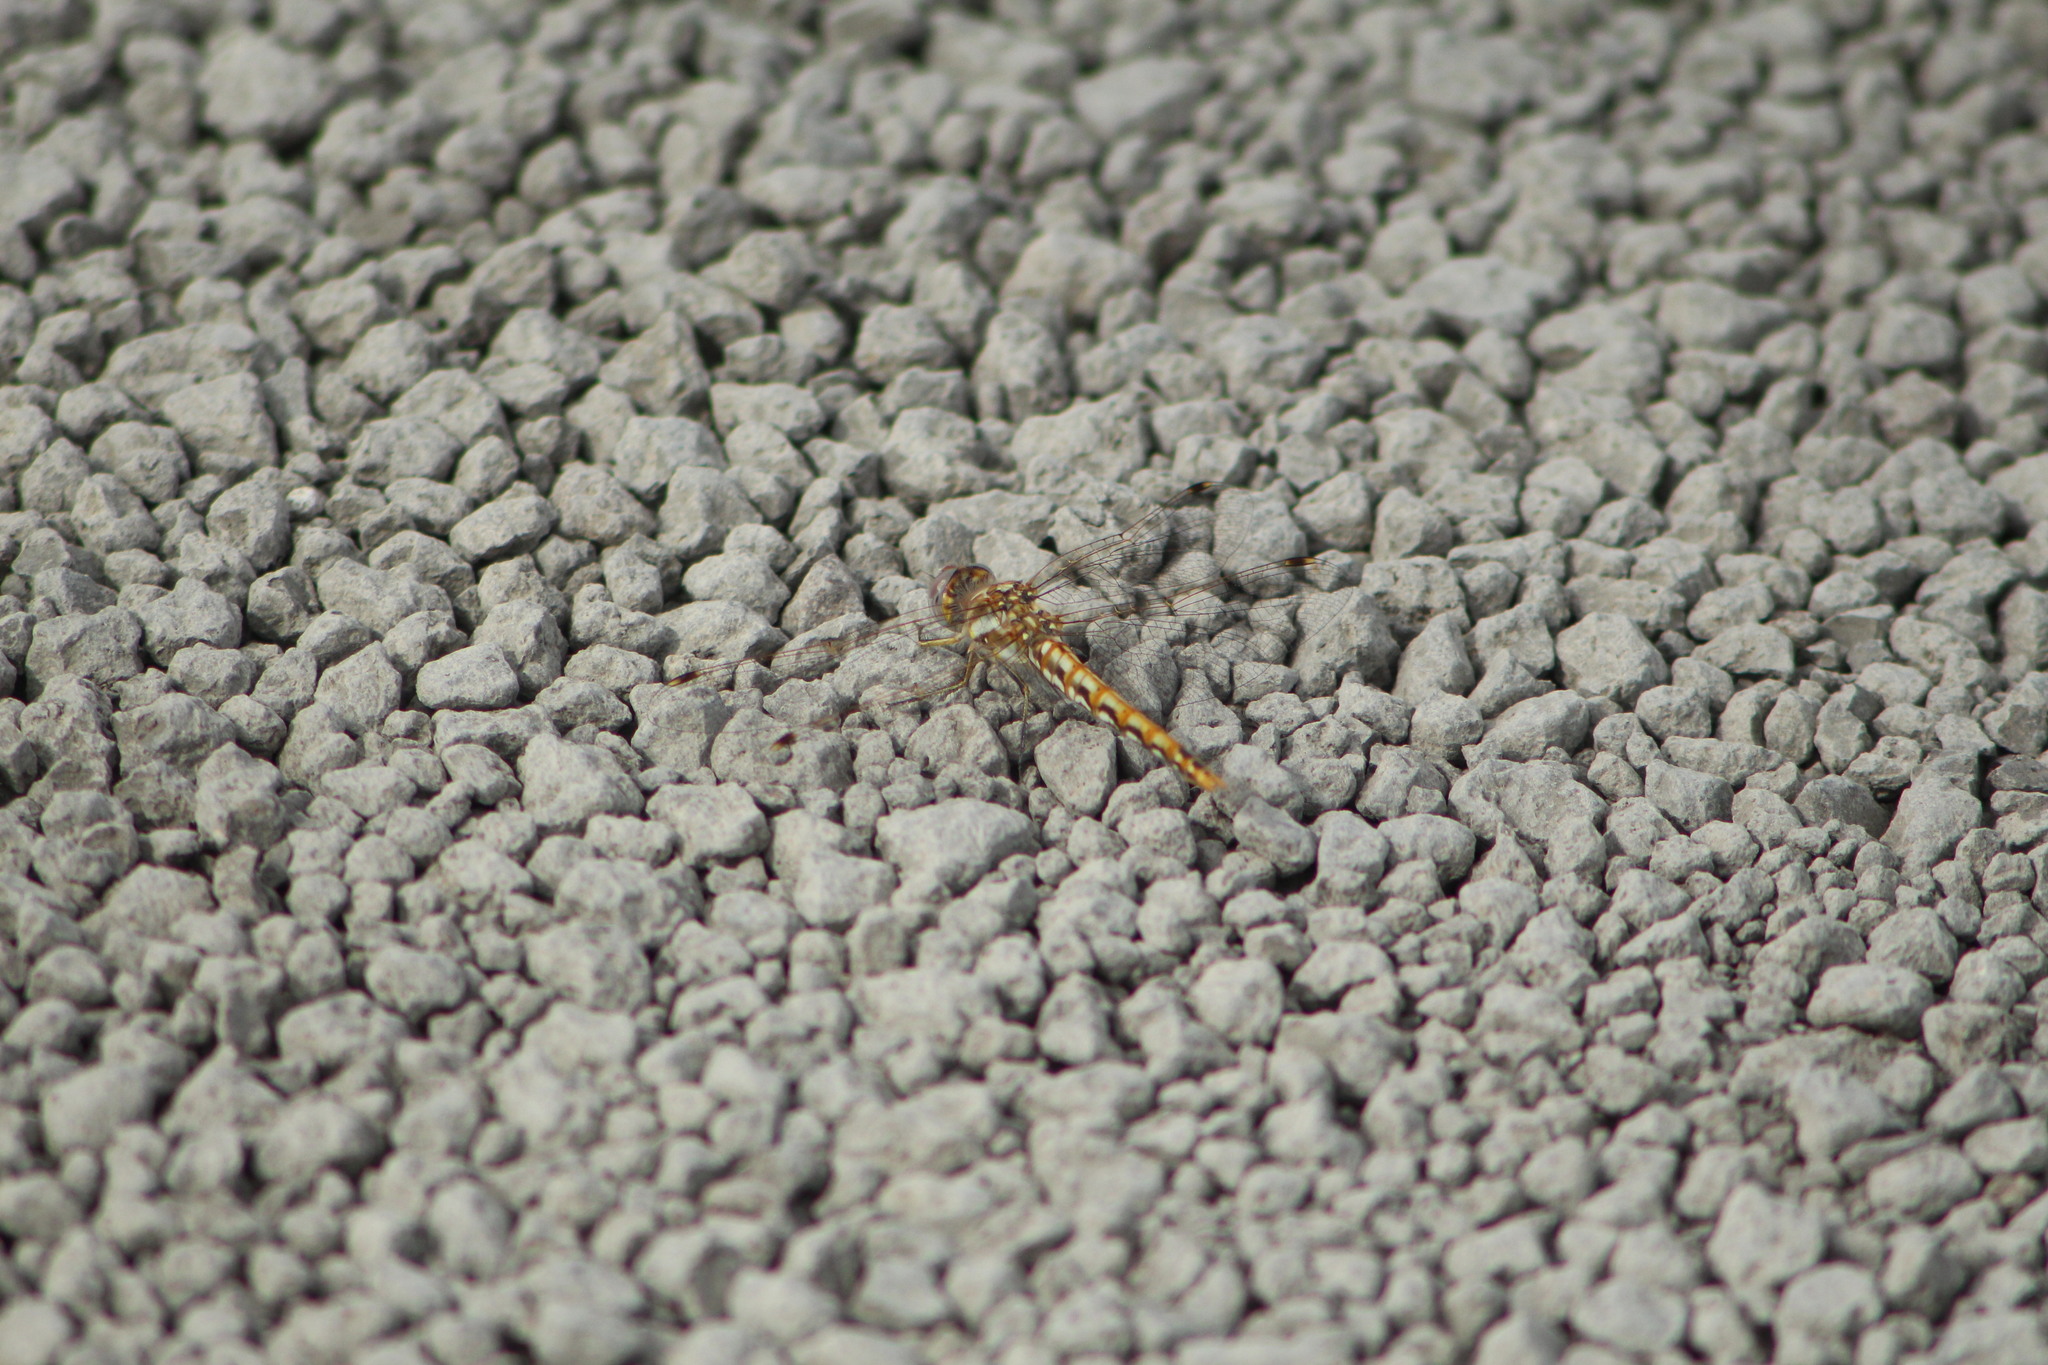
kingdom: Animalia
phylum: Arthropoda
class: Insecta
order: Odonata
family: Libellulidae
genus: Sympetrum
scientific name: Sympetrum corruptum
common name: Variegated meadowhawk
